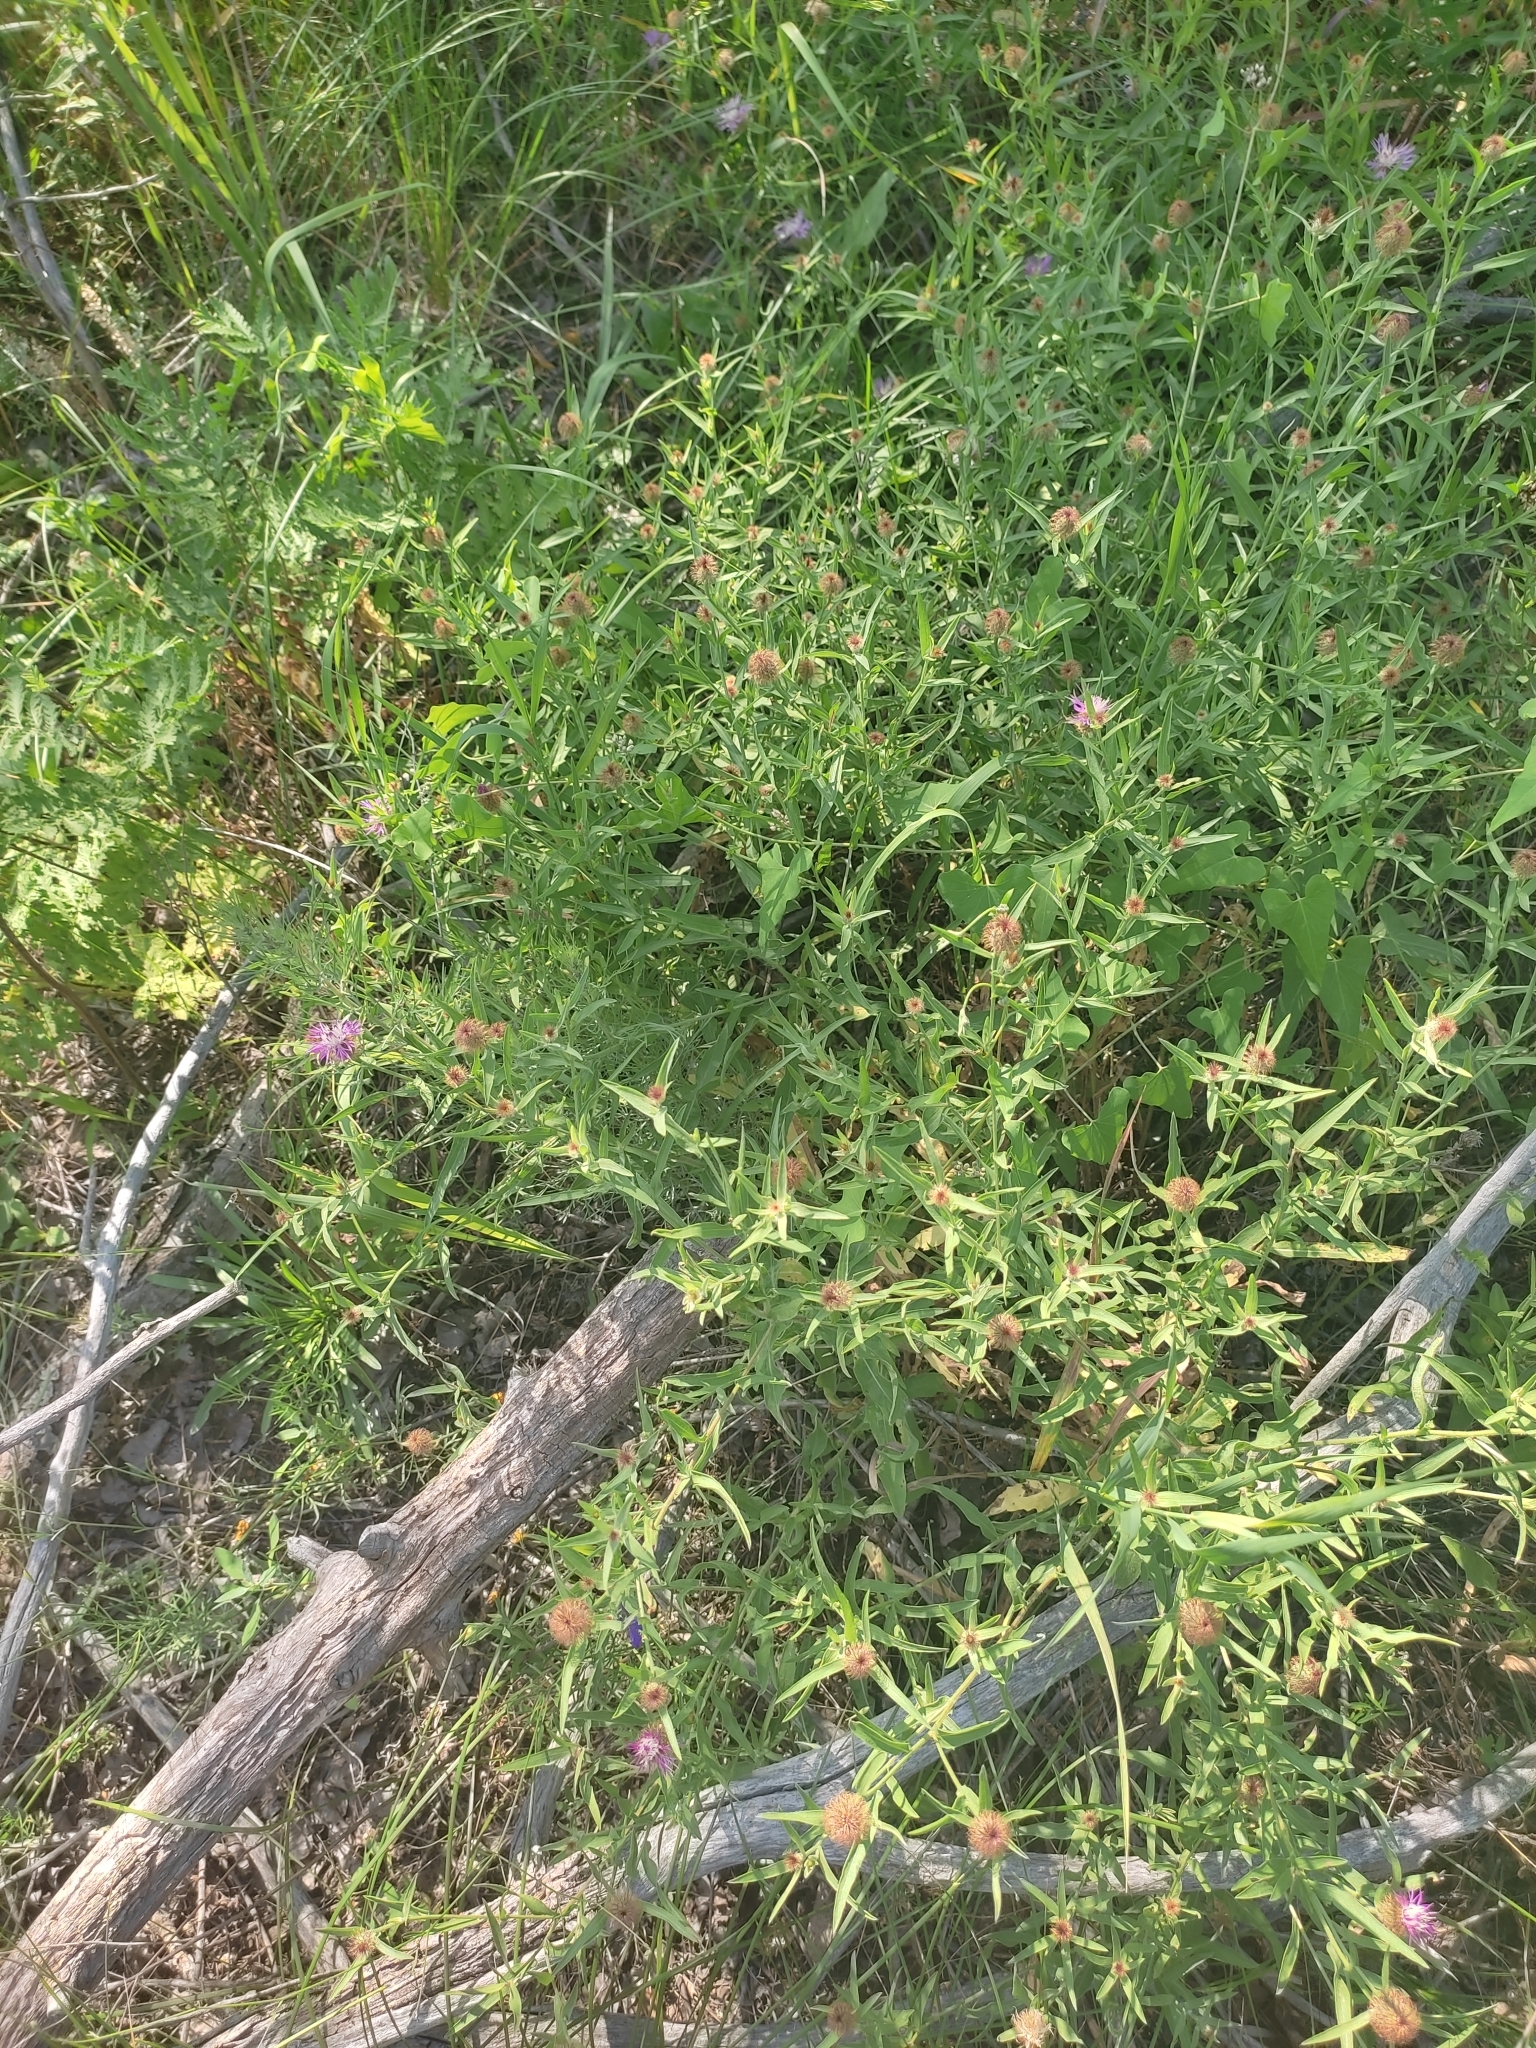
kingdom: Plantae
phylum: Tracheophyta
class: Magnoliopsida
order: Asterales
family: Asteraceae
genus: Centaurea
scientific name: Centaurea trichocephala
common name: Feather-head knapweed
